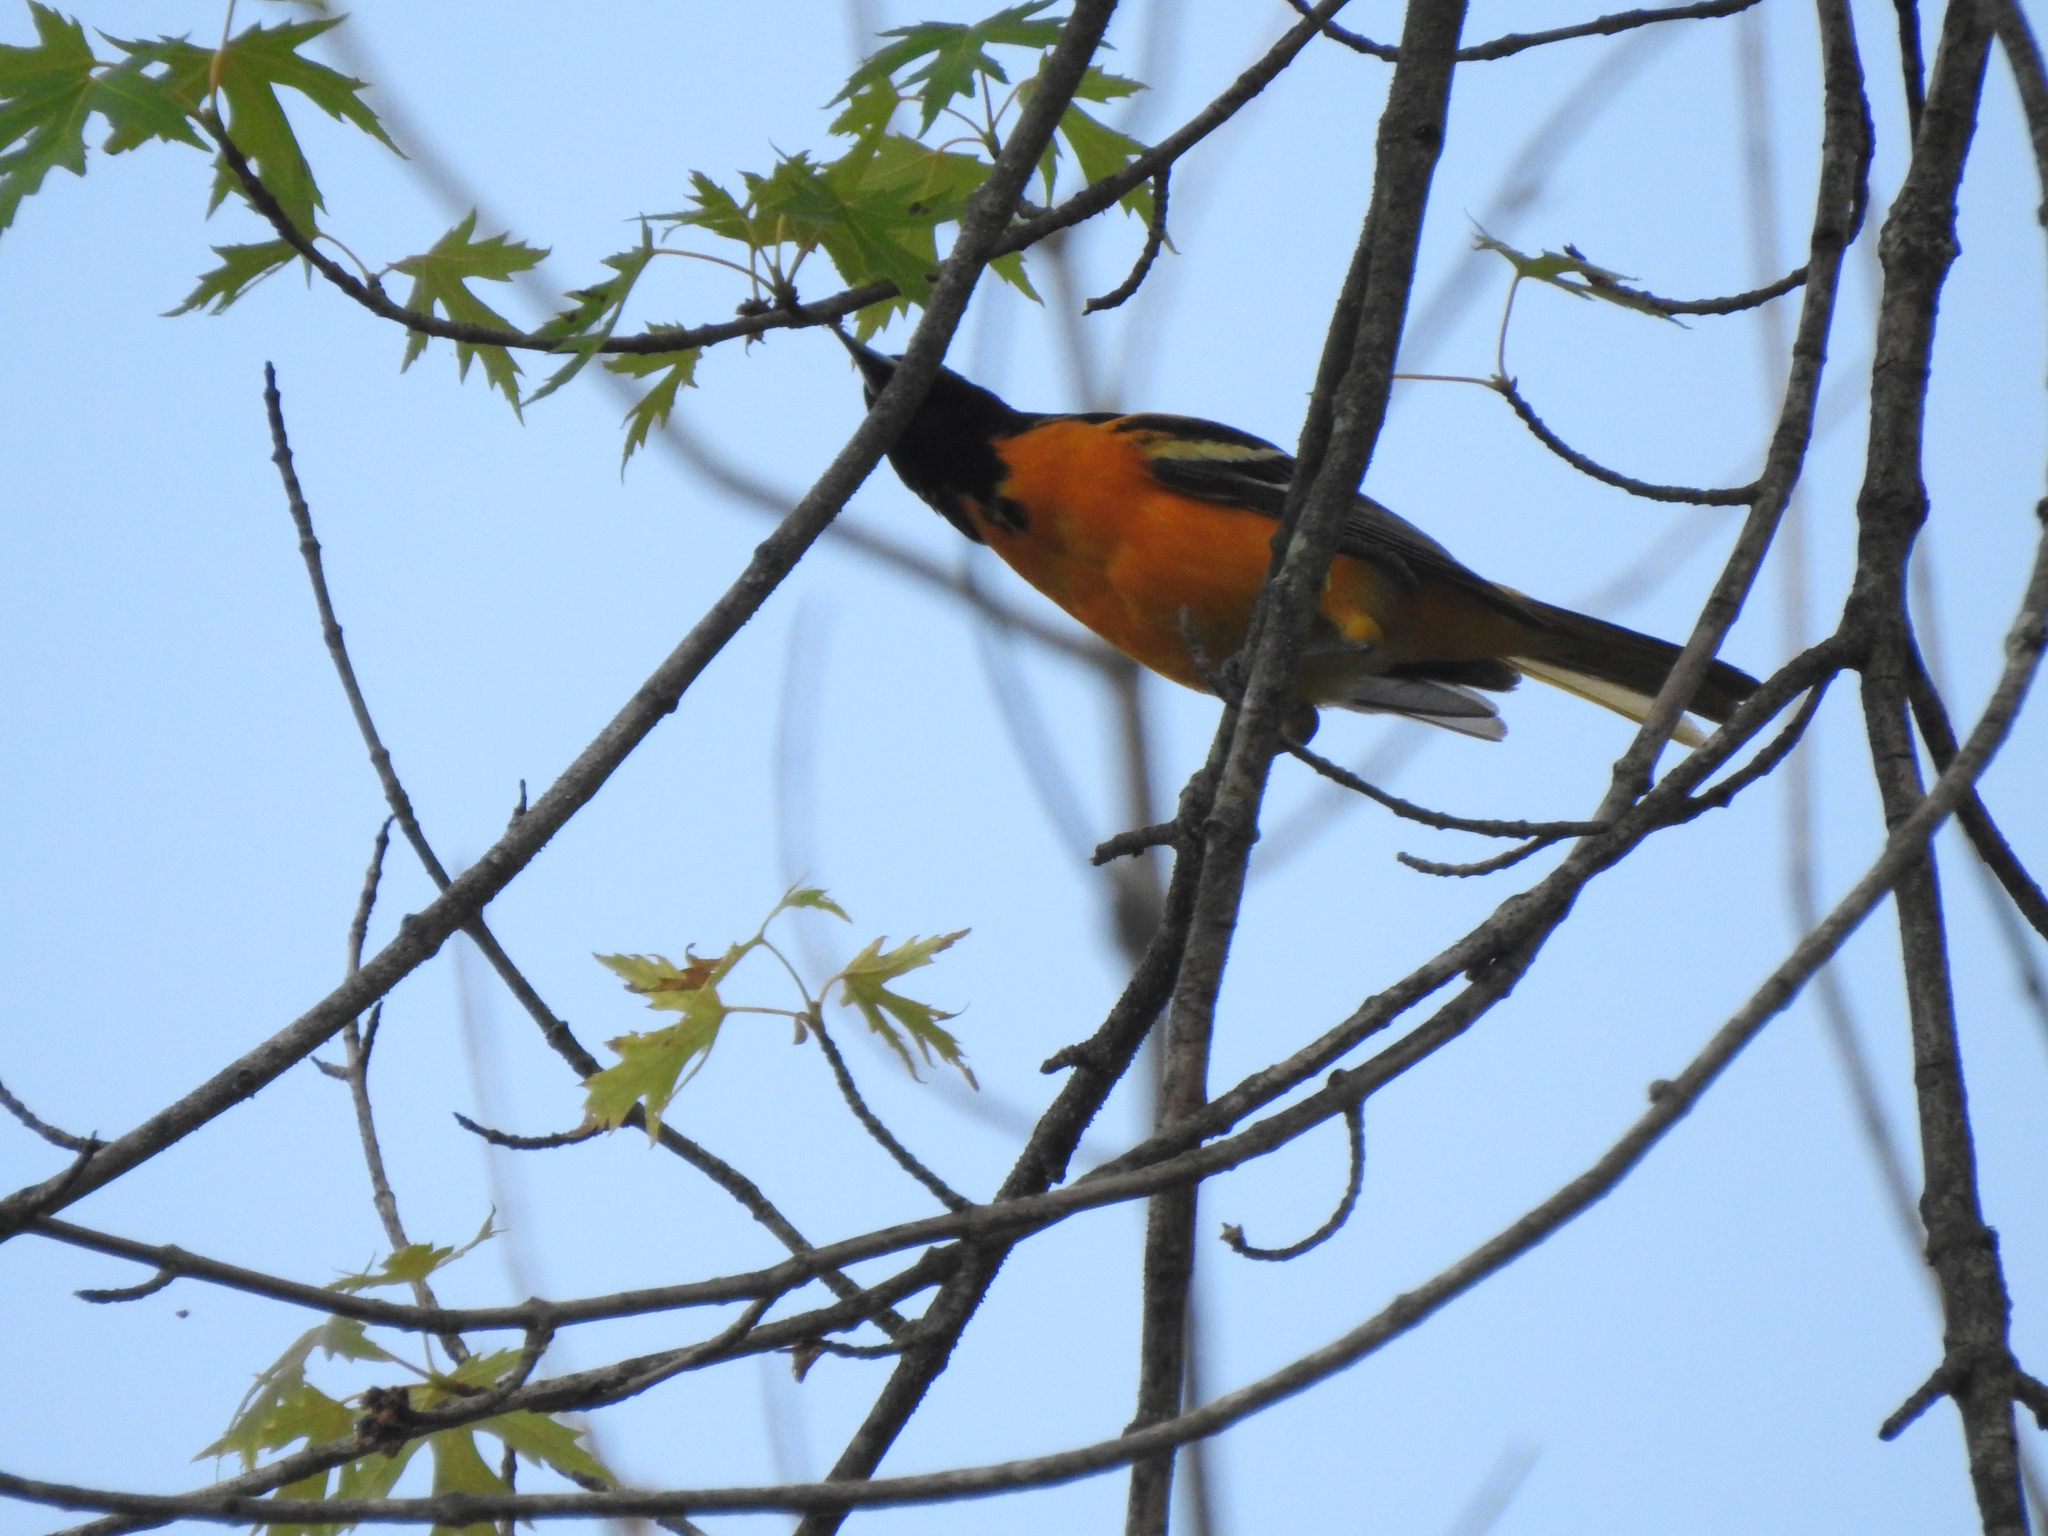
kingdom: Animalia
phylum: Chordata
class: Aves
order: Passeriformes
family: Icteridae
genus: Icterus
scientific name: Icterus galbula
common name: Baltimore oriole
